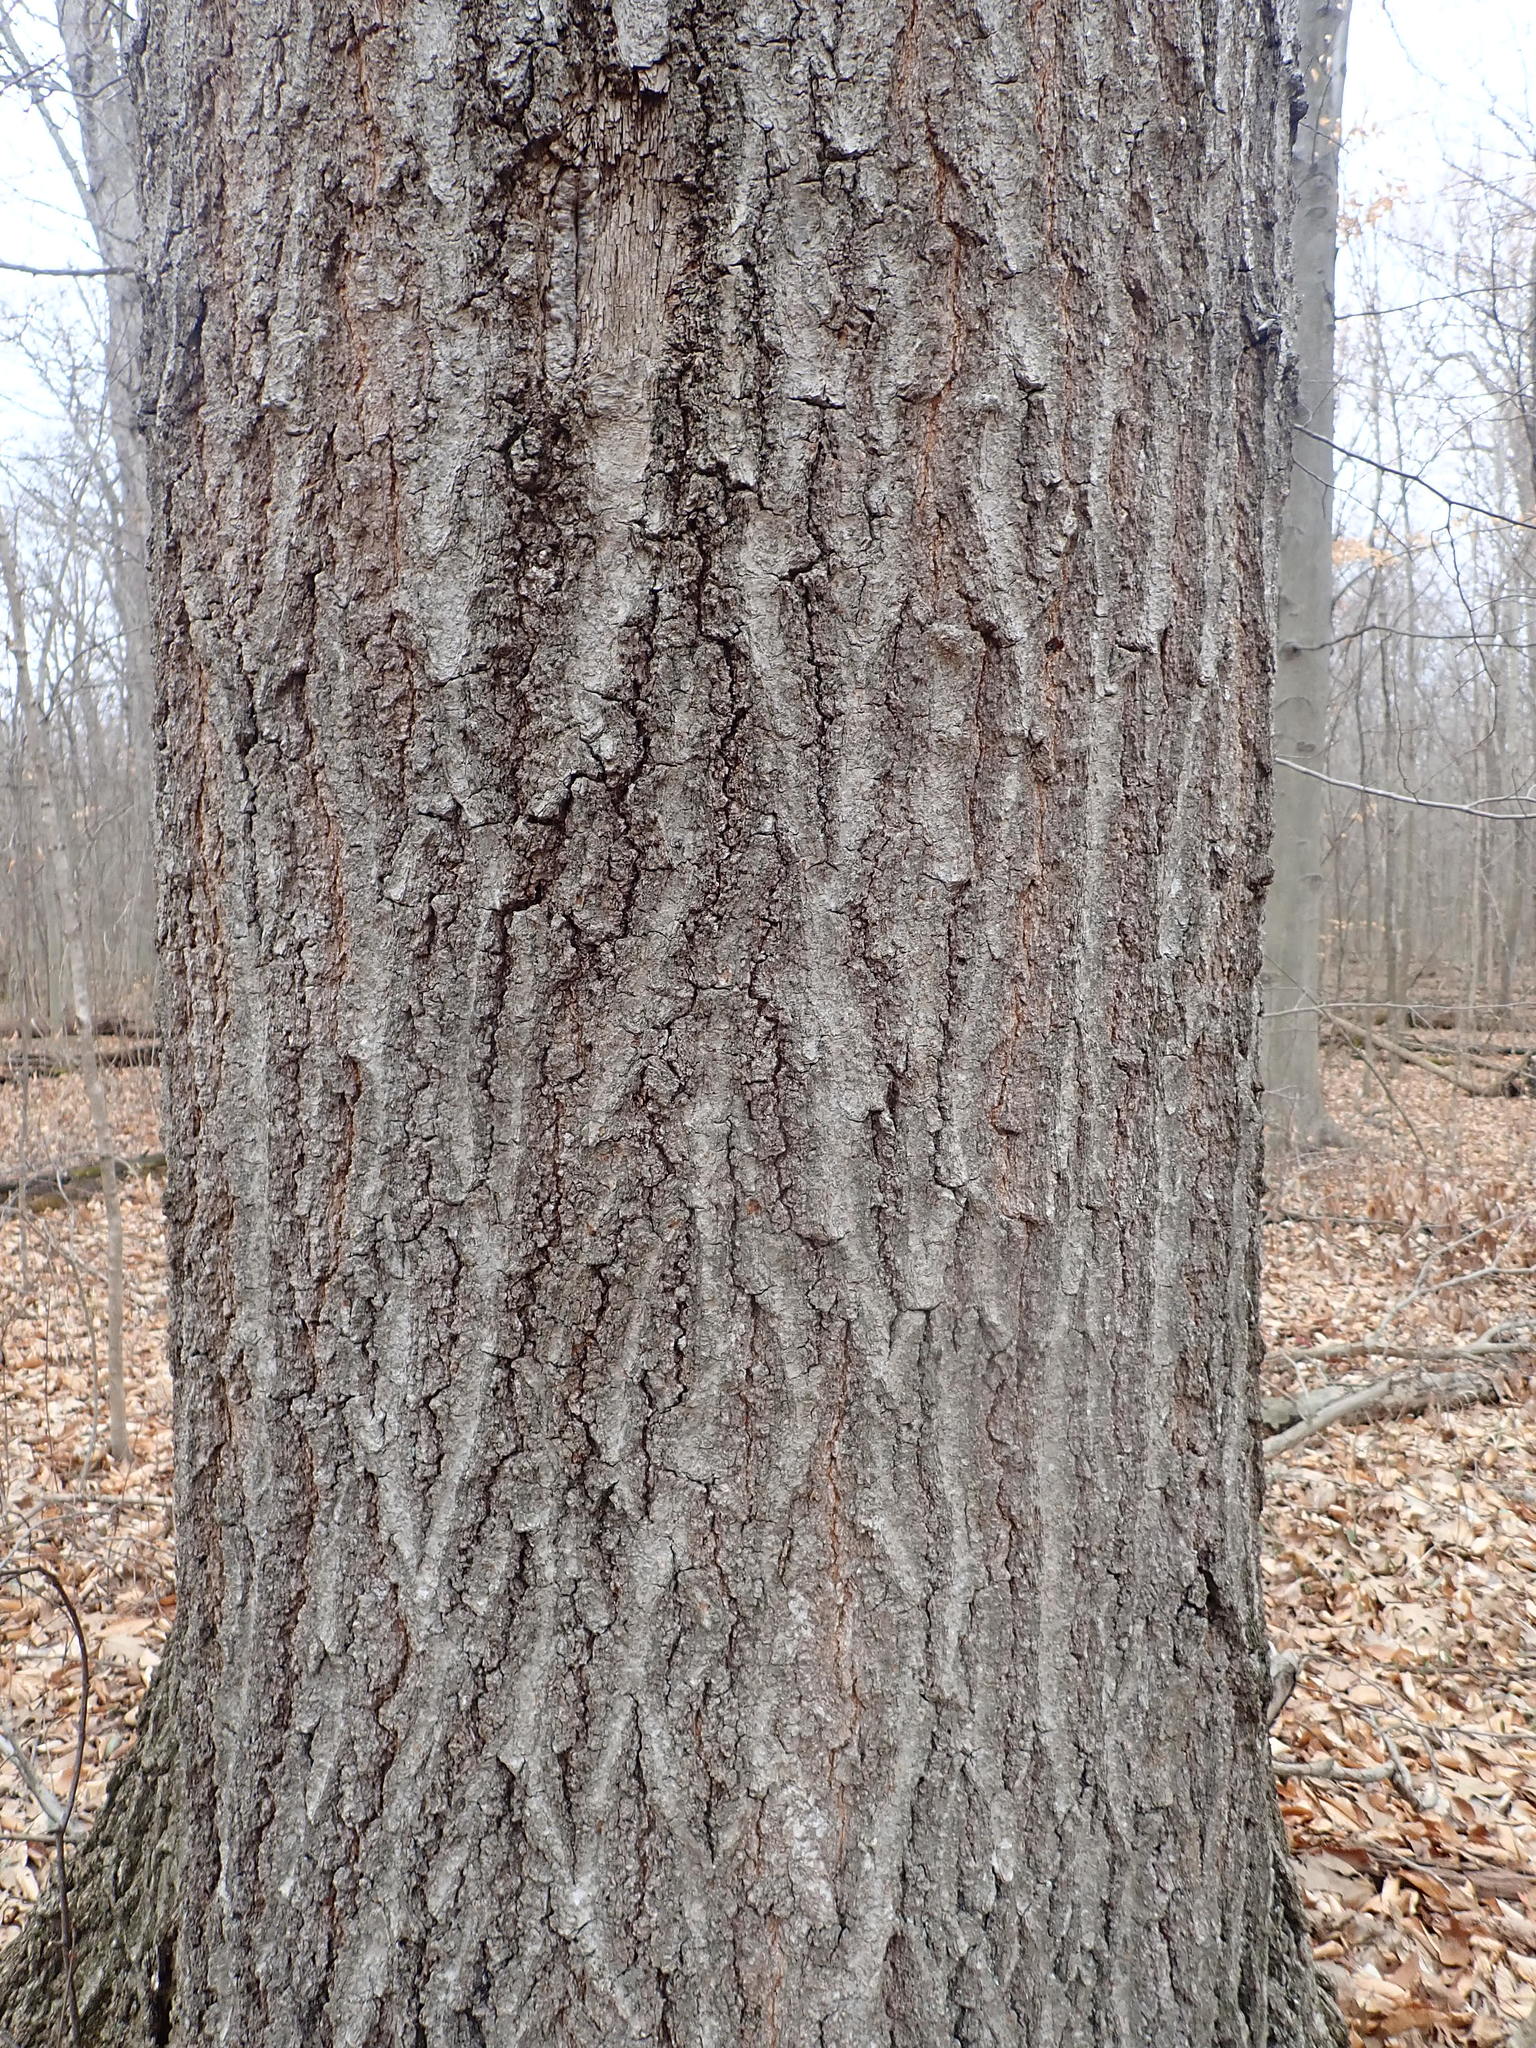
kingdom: Plantae
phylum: Tracheophyta
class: Magnoliopsida
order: Fagales
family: Fagaceae
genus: Quercus
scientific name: Quercus rubra
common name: Red oak
